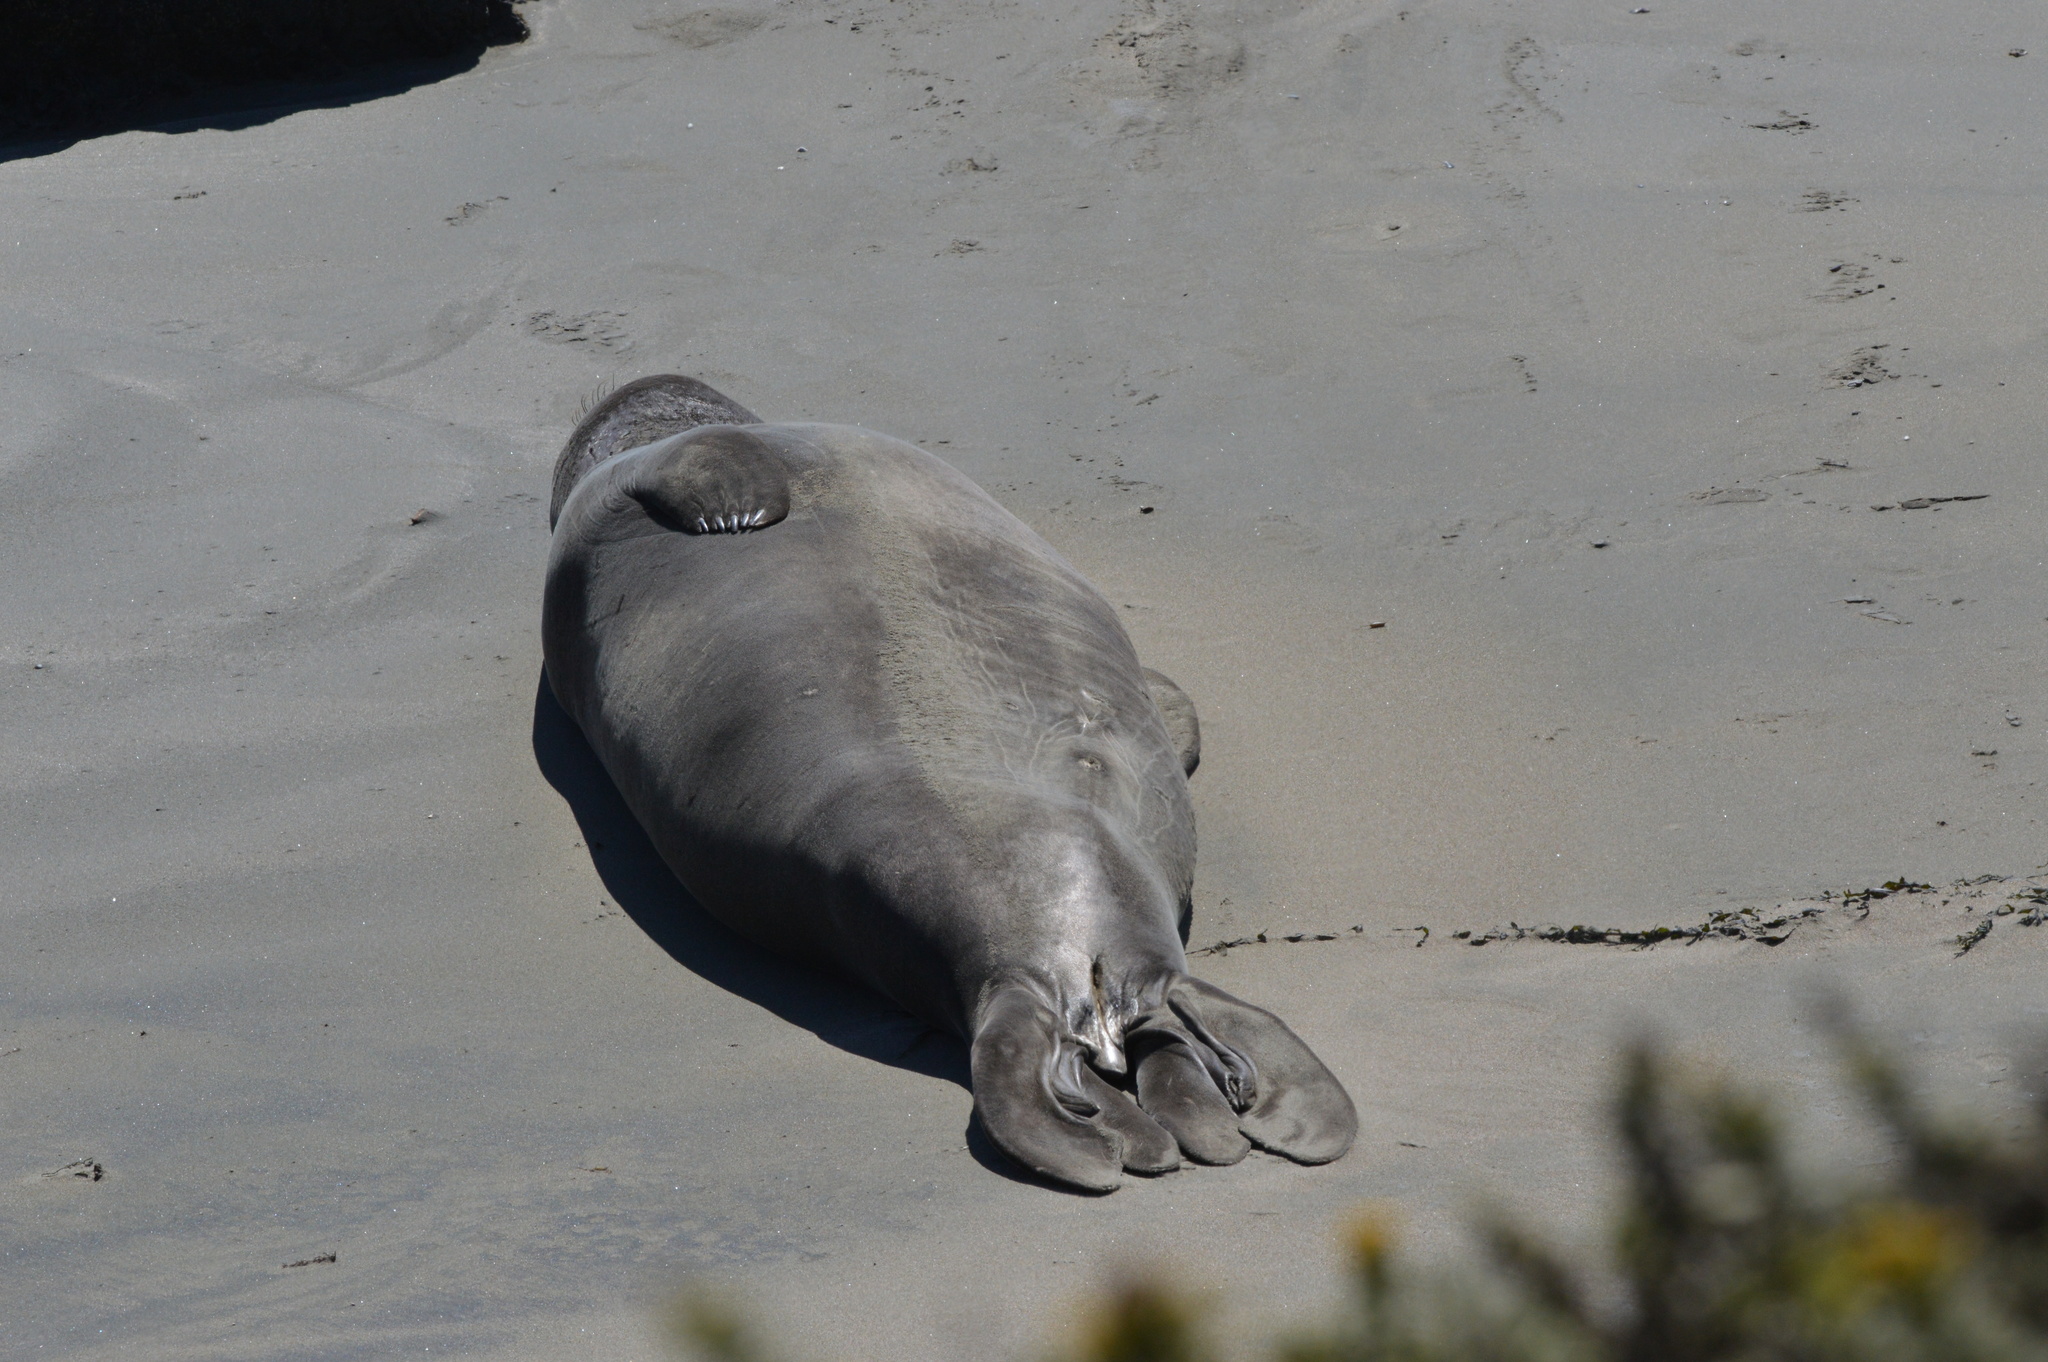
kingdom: Animalia
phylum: Chordata
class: Mammalia
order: Carnivora
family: Phocidae
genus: Mirounga
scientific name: Mirounga angustirostris
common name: Northern elephant seal
